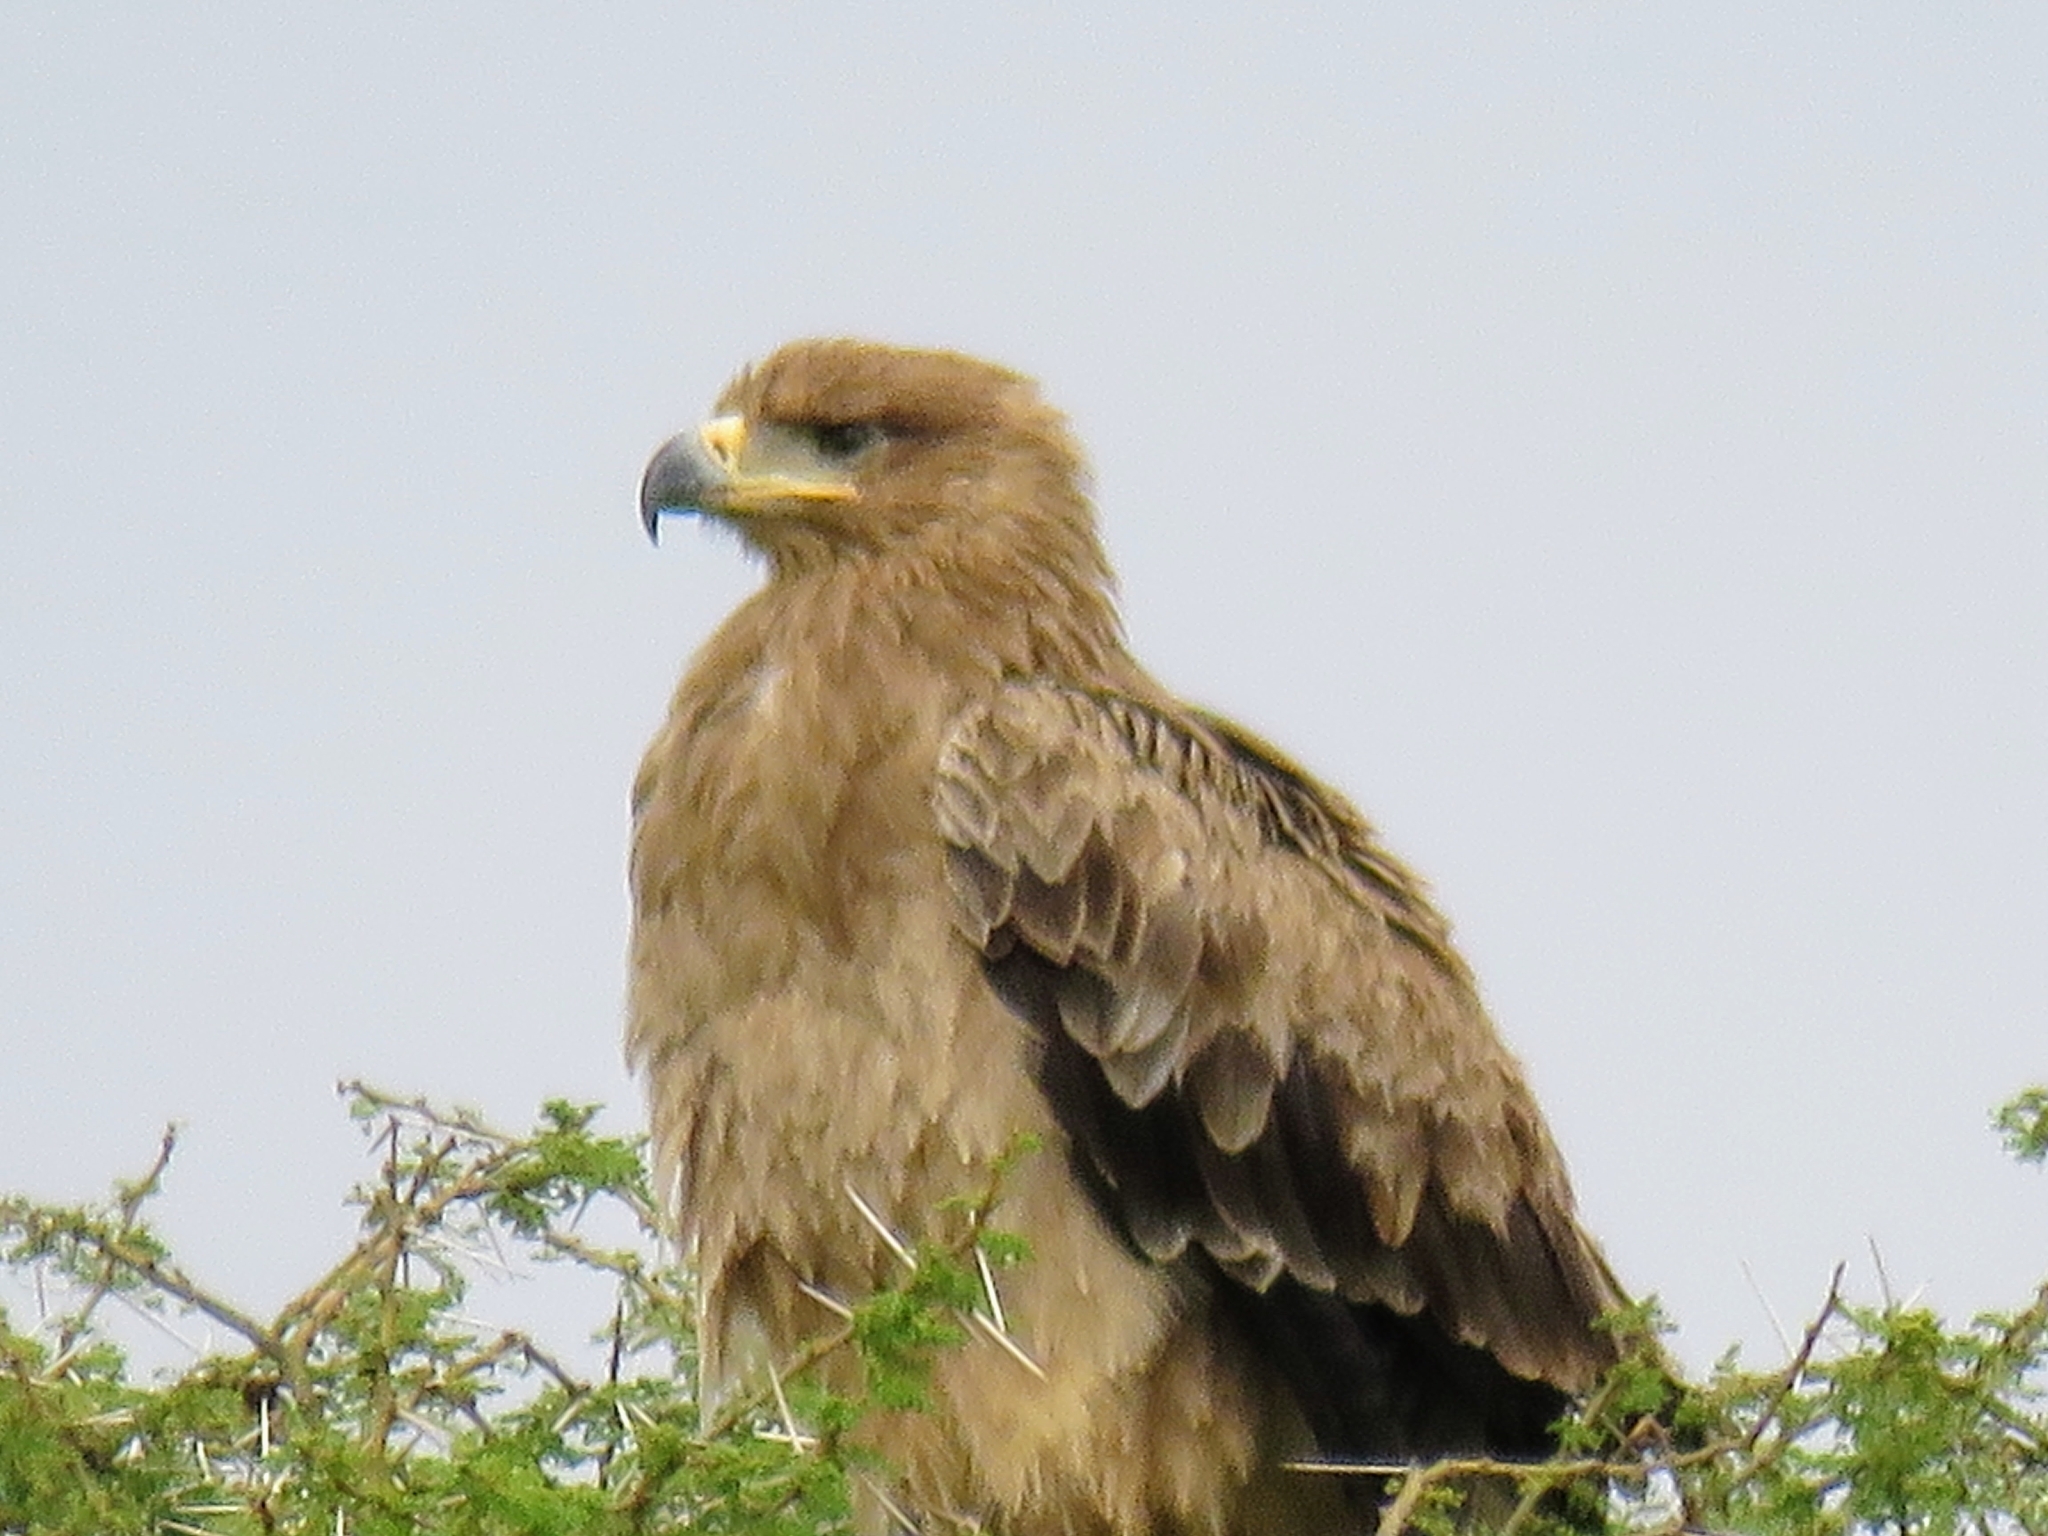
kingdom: Animalia
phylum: Chordata
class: Aves
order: Accipitriformes
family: Accipitridae
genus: Aquila
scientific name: Aquila rapax
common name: Tawny eagle
